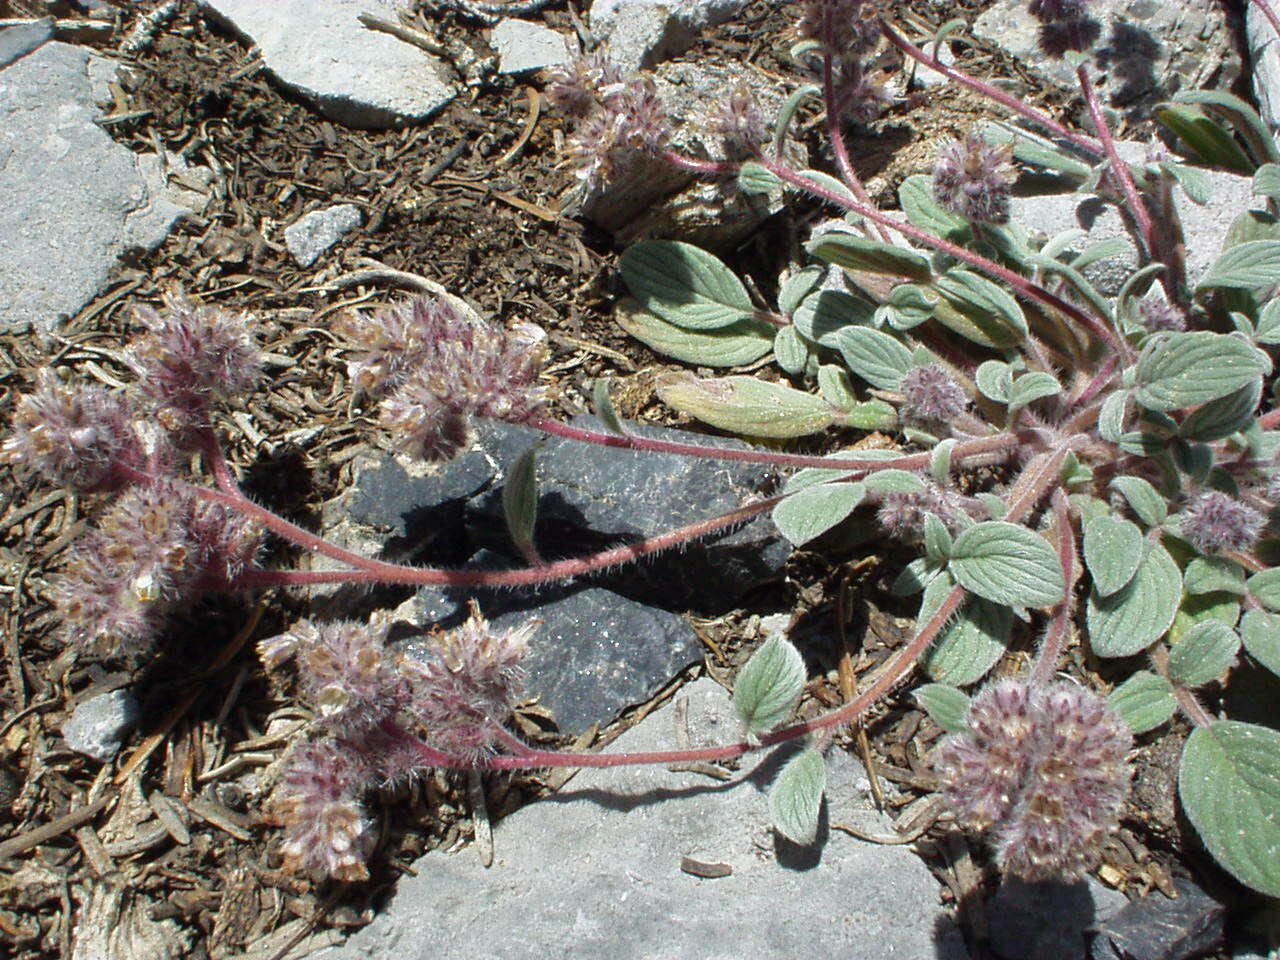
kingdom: Plantae
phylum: Tracheophyta
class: Magnoliopsida
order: Boraginales
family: Hydrophyllaceae
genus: Phacelia
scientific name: Phacelia hastata
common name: Silver-leaved phacelia
